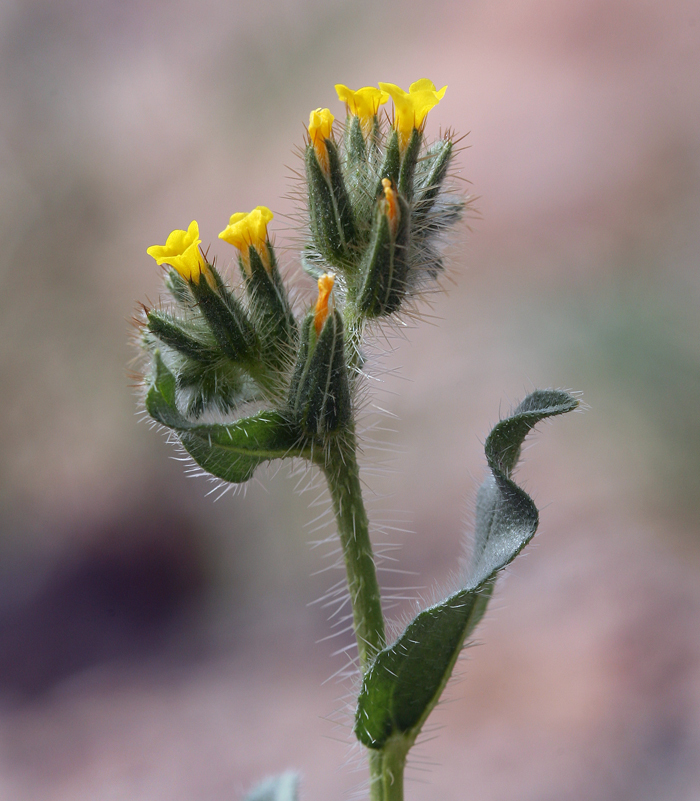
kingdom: Plantae
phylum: Tracheophyta
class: Magnoliopsida
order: Boraginales
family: Boraginaceae
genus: Amsinckia
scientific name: Amsinckia tessellata
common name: Tessellate fiddleneck
